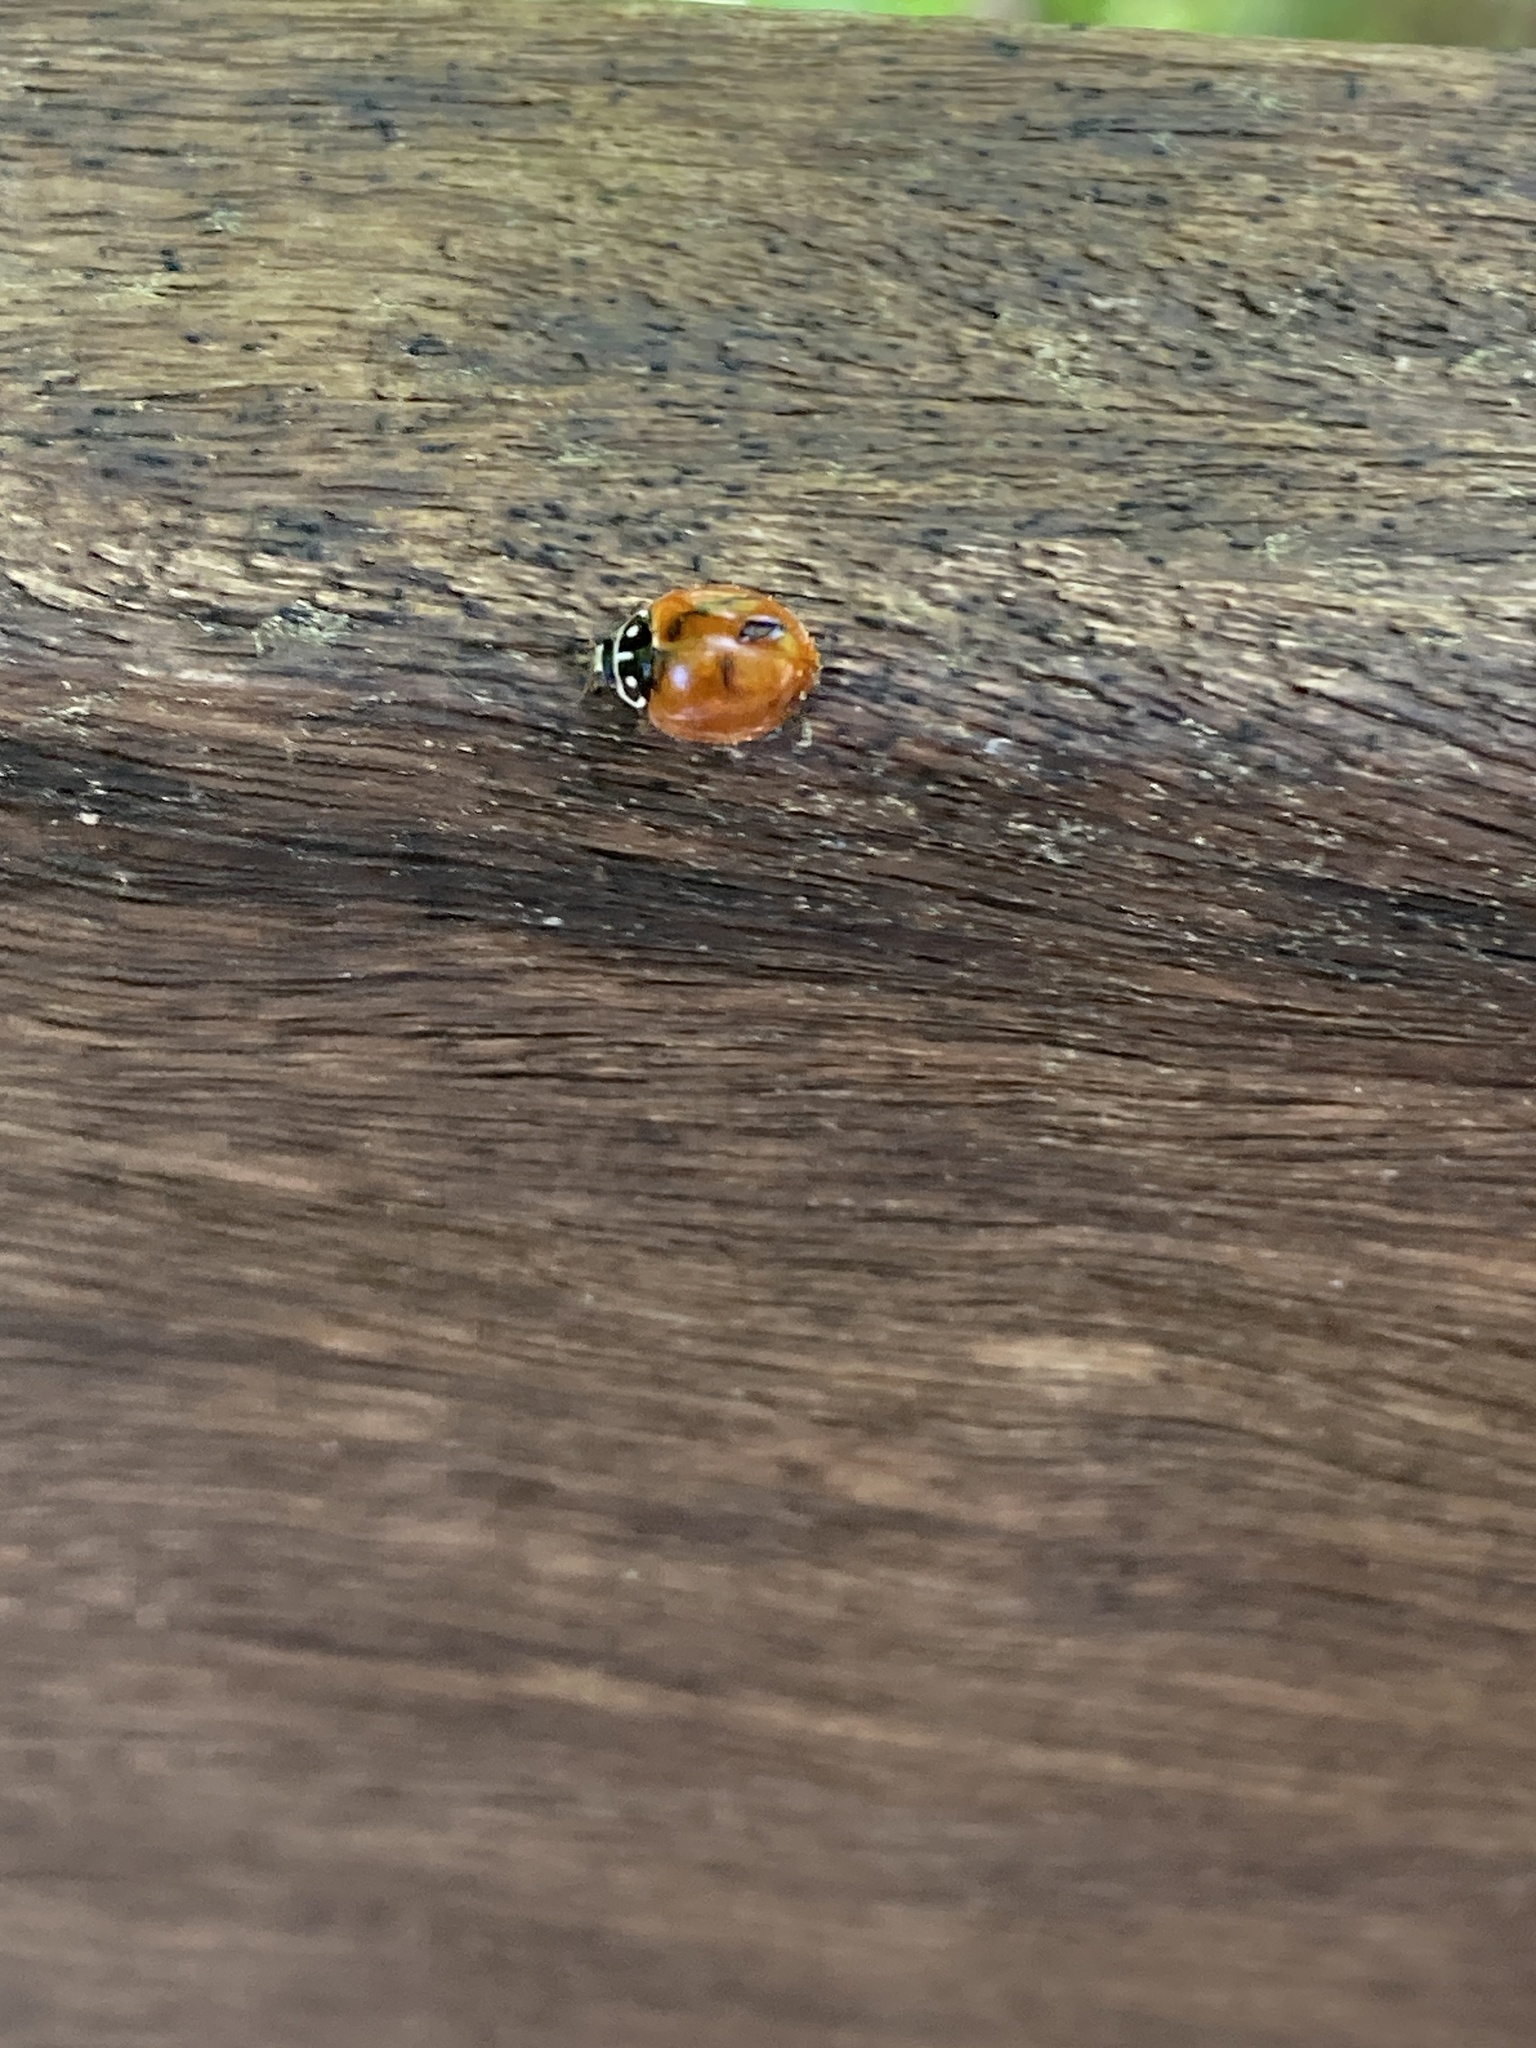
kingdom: Animalia
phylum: Arthropoda
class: Insecta
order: Coleoptera
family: Coccinellidae
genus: Cycloneda
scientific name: Cycloneda sanguinea
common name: Ladybird beetle
